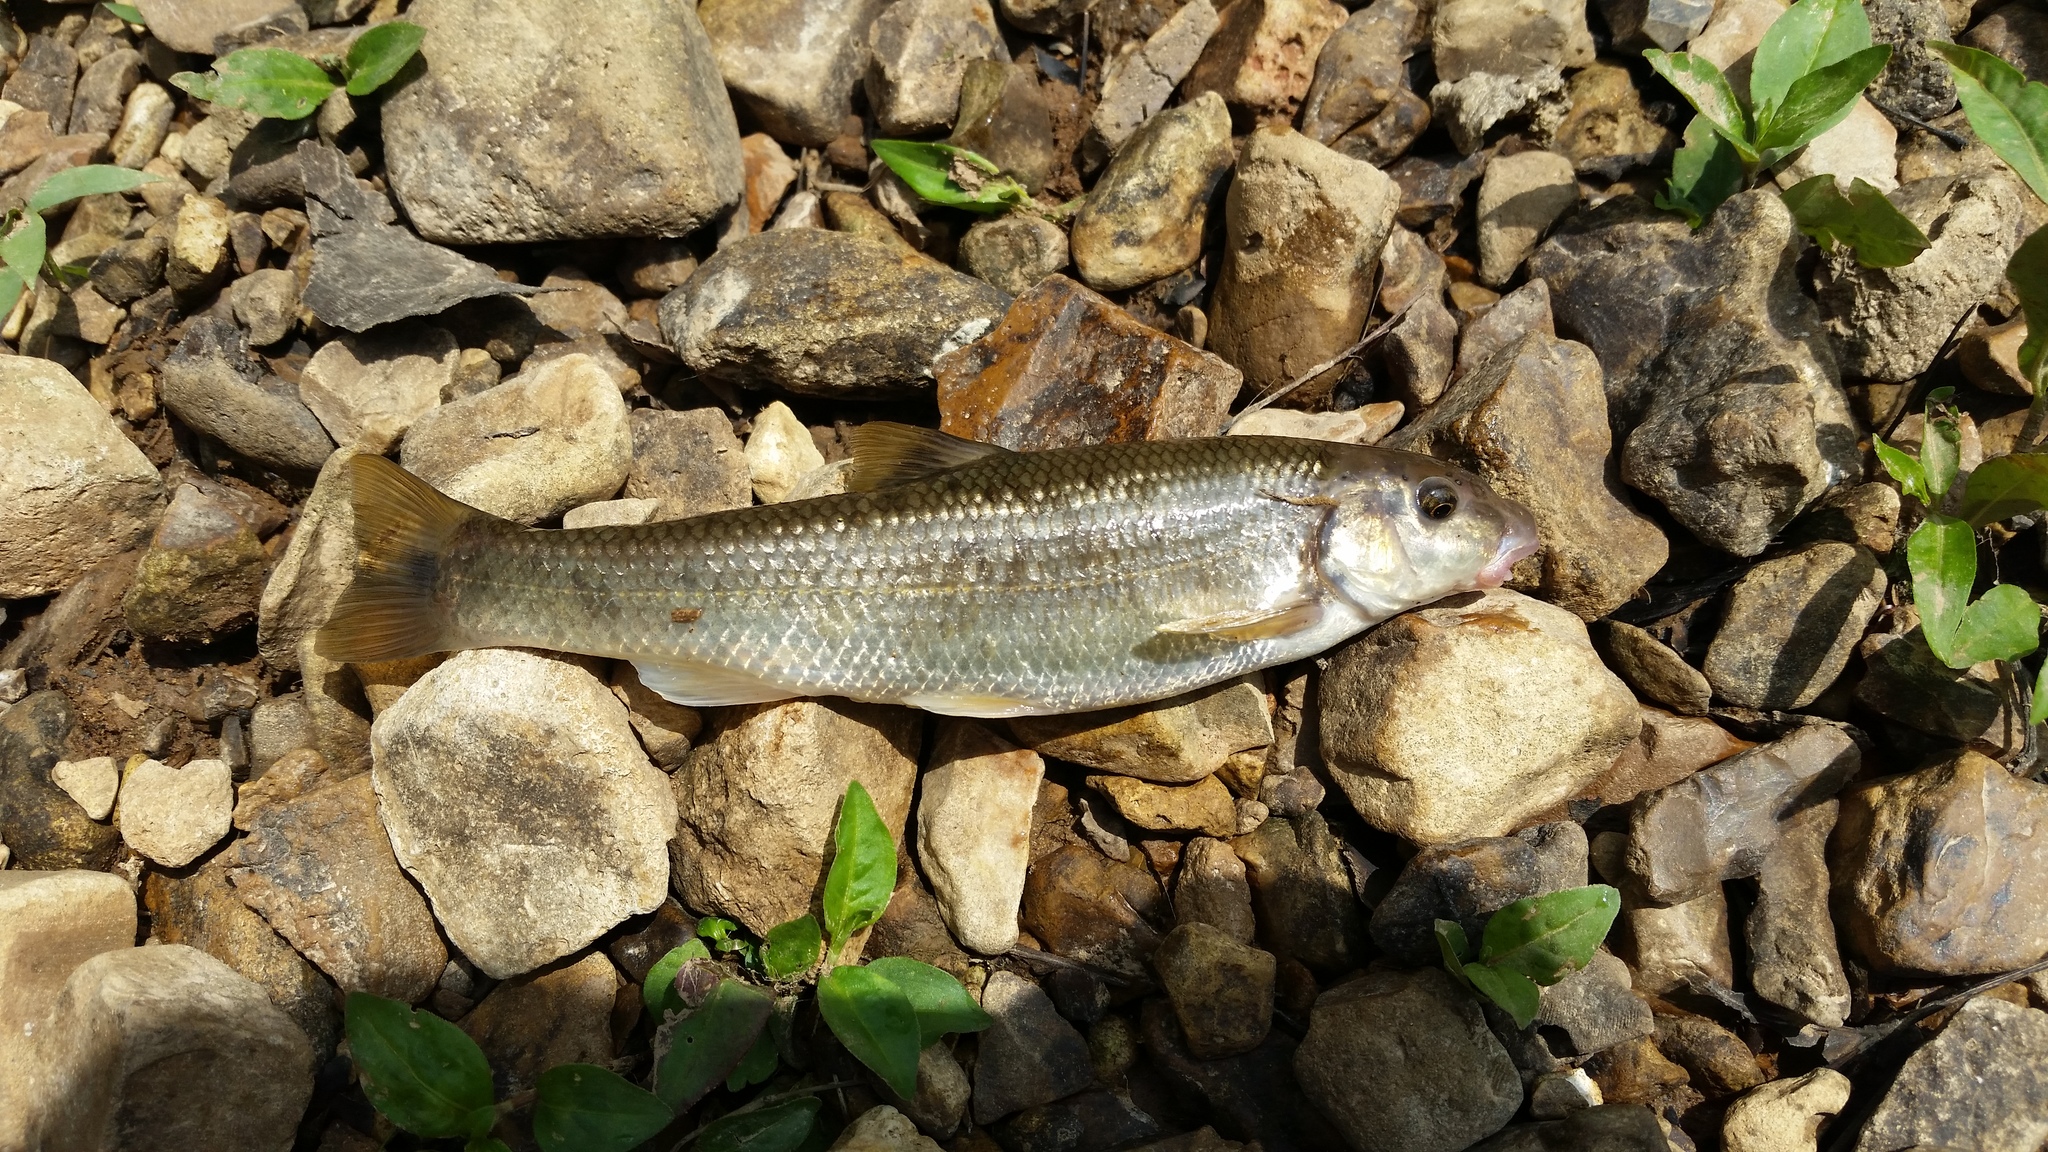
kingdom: Animalia
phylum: Chordata
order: Cypriniformes
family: Cyprinidae
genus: Campostoma
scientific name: Campostoma oligolepis
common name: Largescale stoneroller
